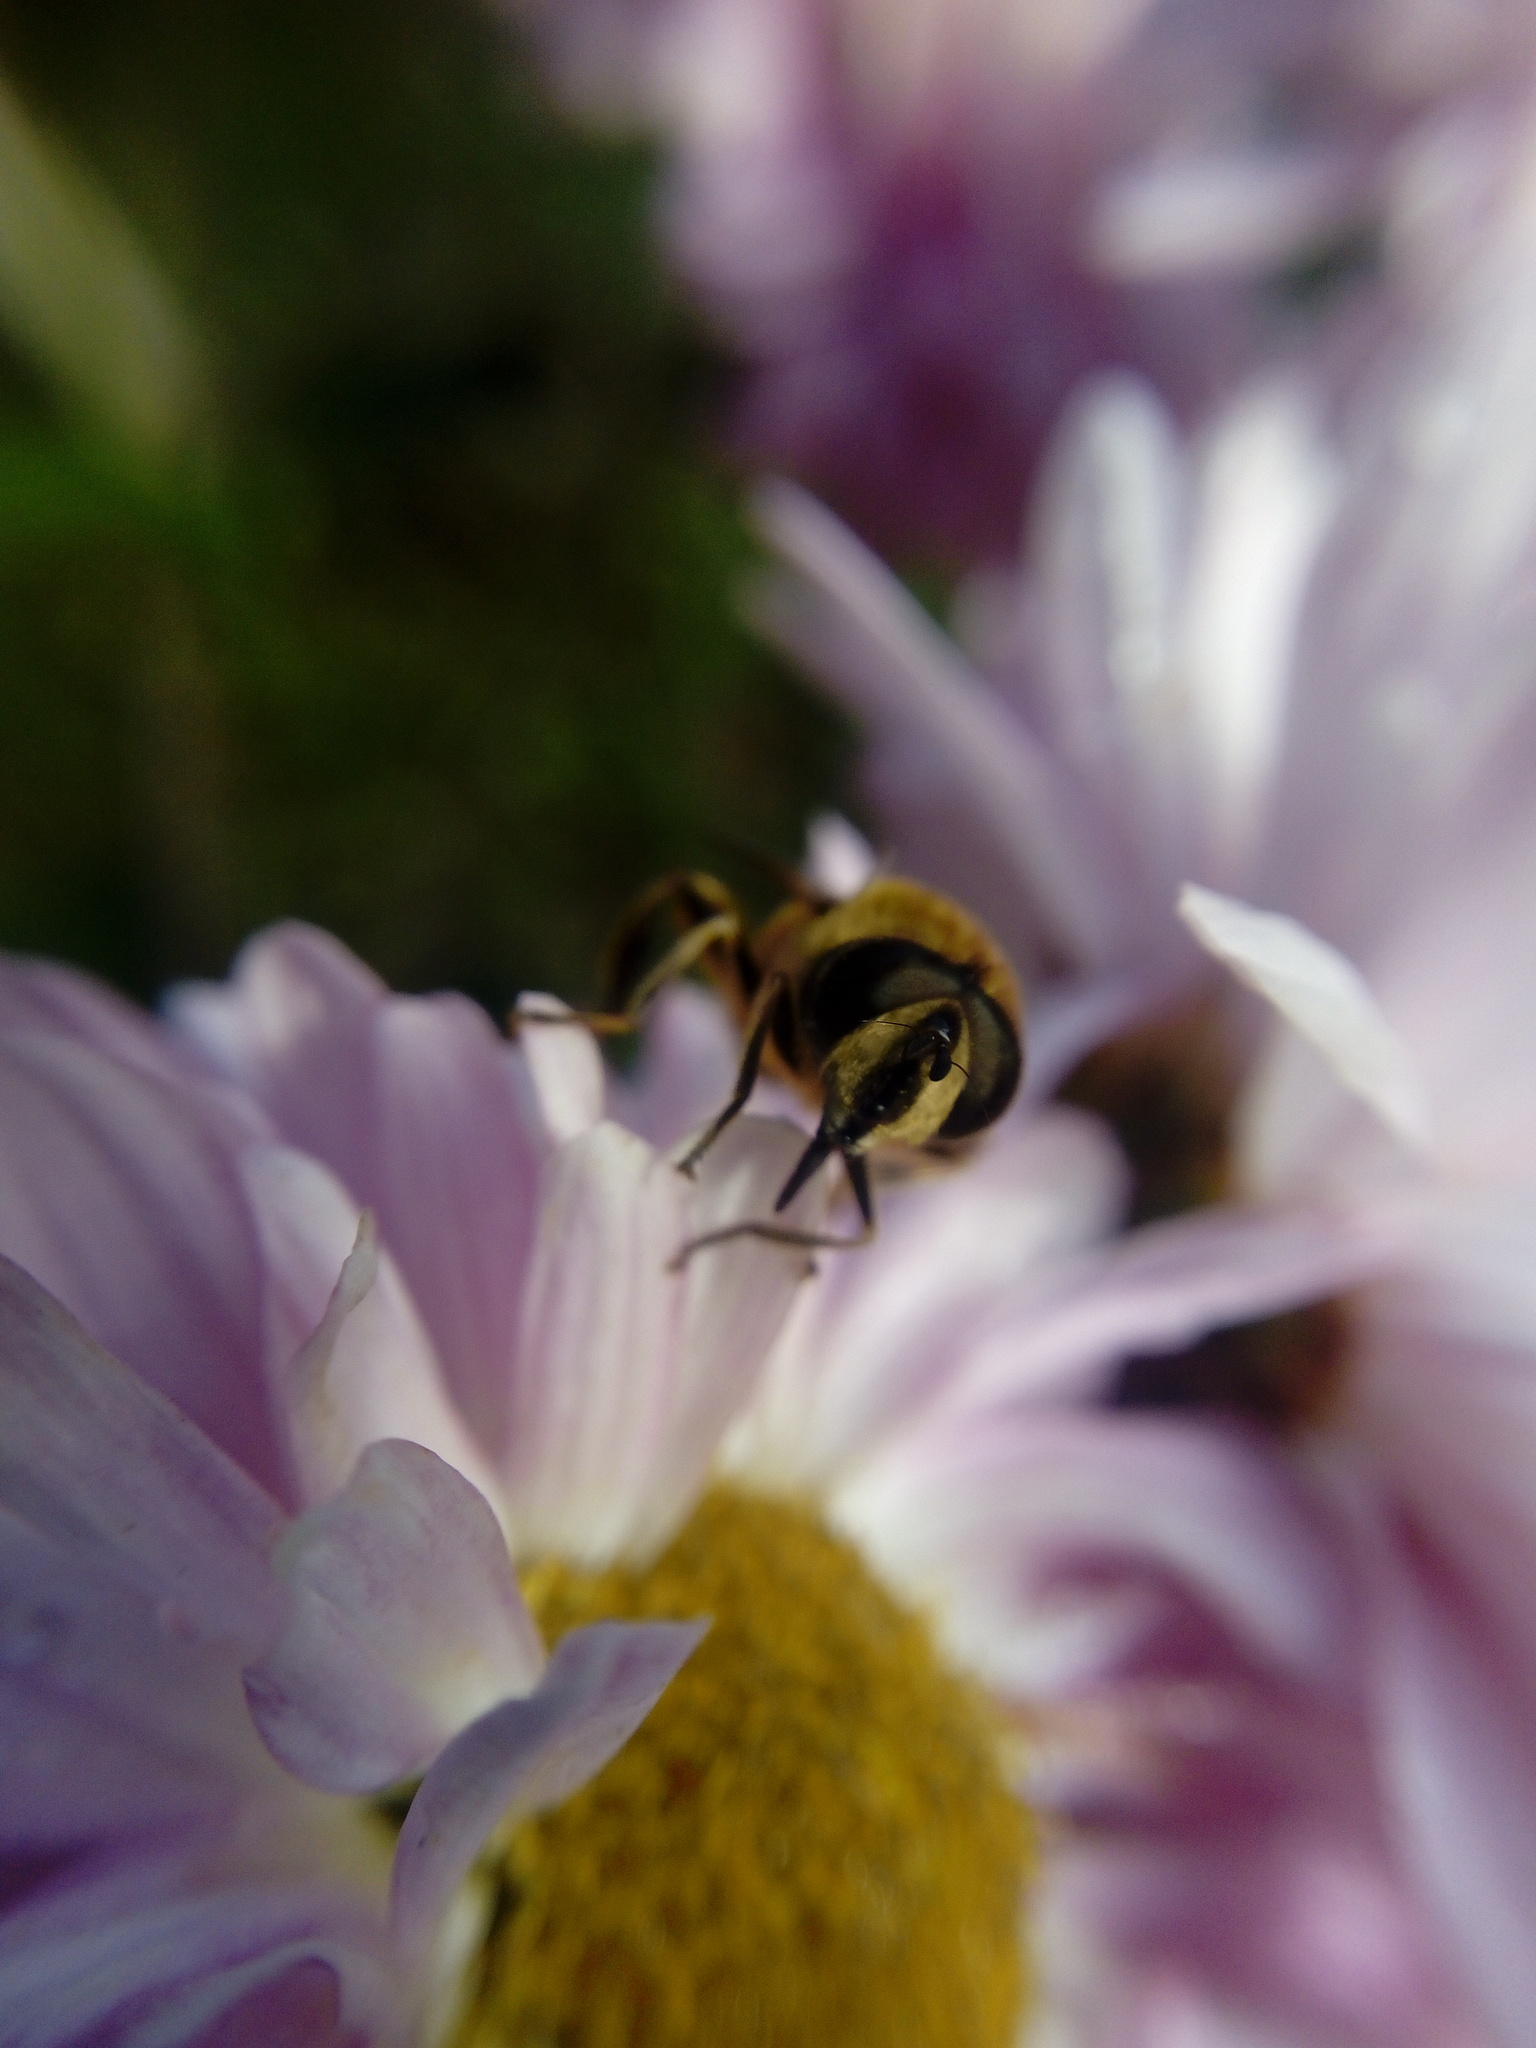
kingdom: Animalia
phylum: Arthropoda
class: Insecta
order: Diptera
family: Syrphidae
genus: Eristalis
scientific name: Eristalis tenax
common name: Drone fly
